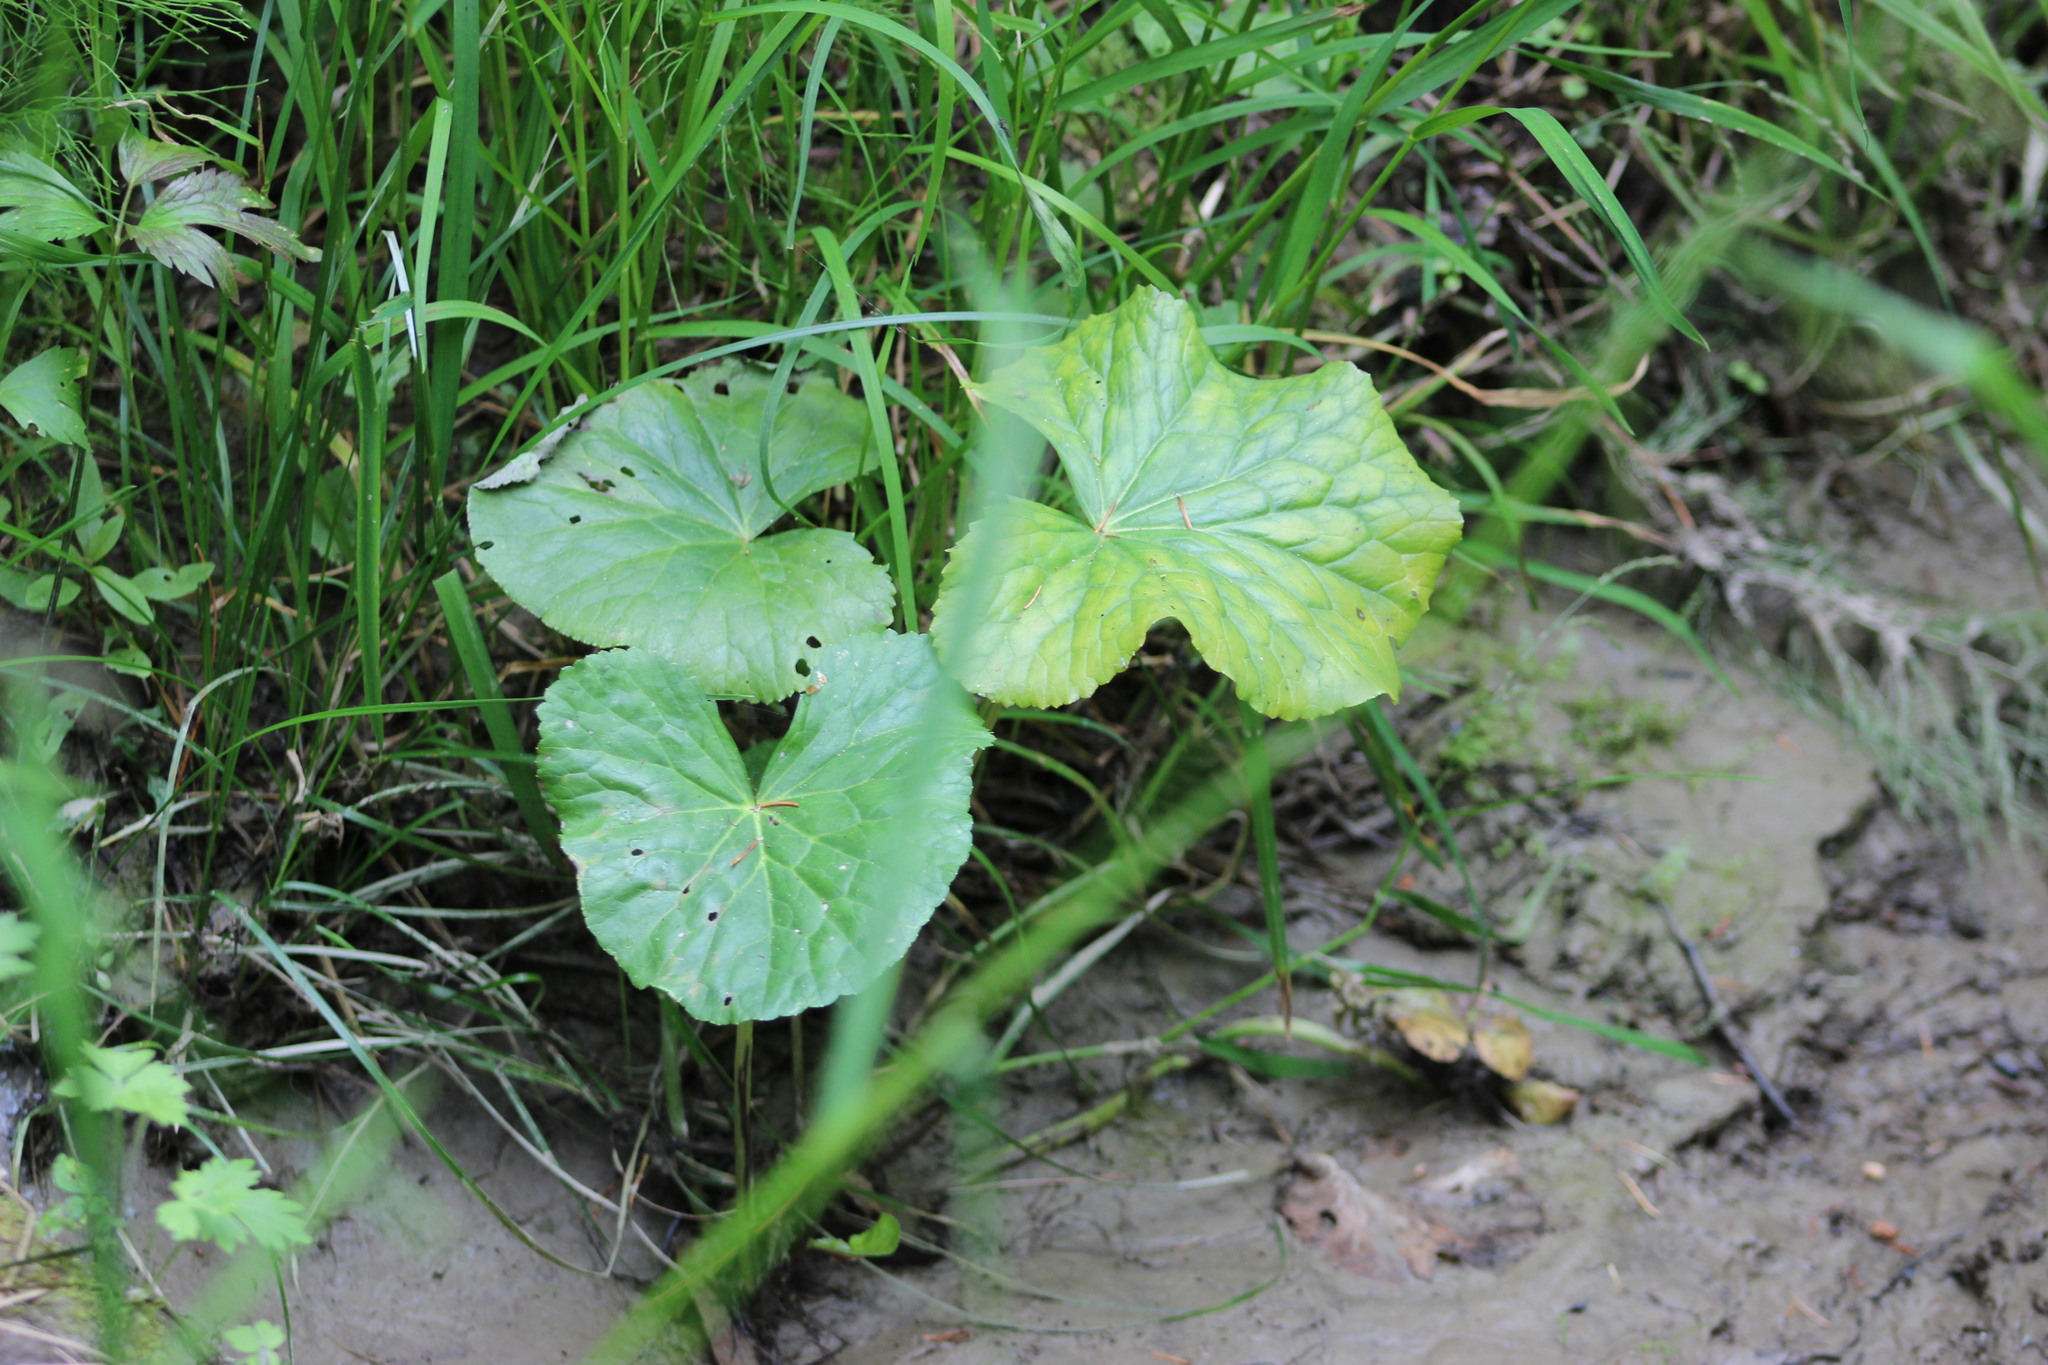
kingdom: Plantae
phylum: Tracheophyta
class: Magnoliopsida
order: Ranunculales
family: Ranunculaceae
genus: Caltha
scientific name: Caltha palustris
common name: Marsh marigold
